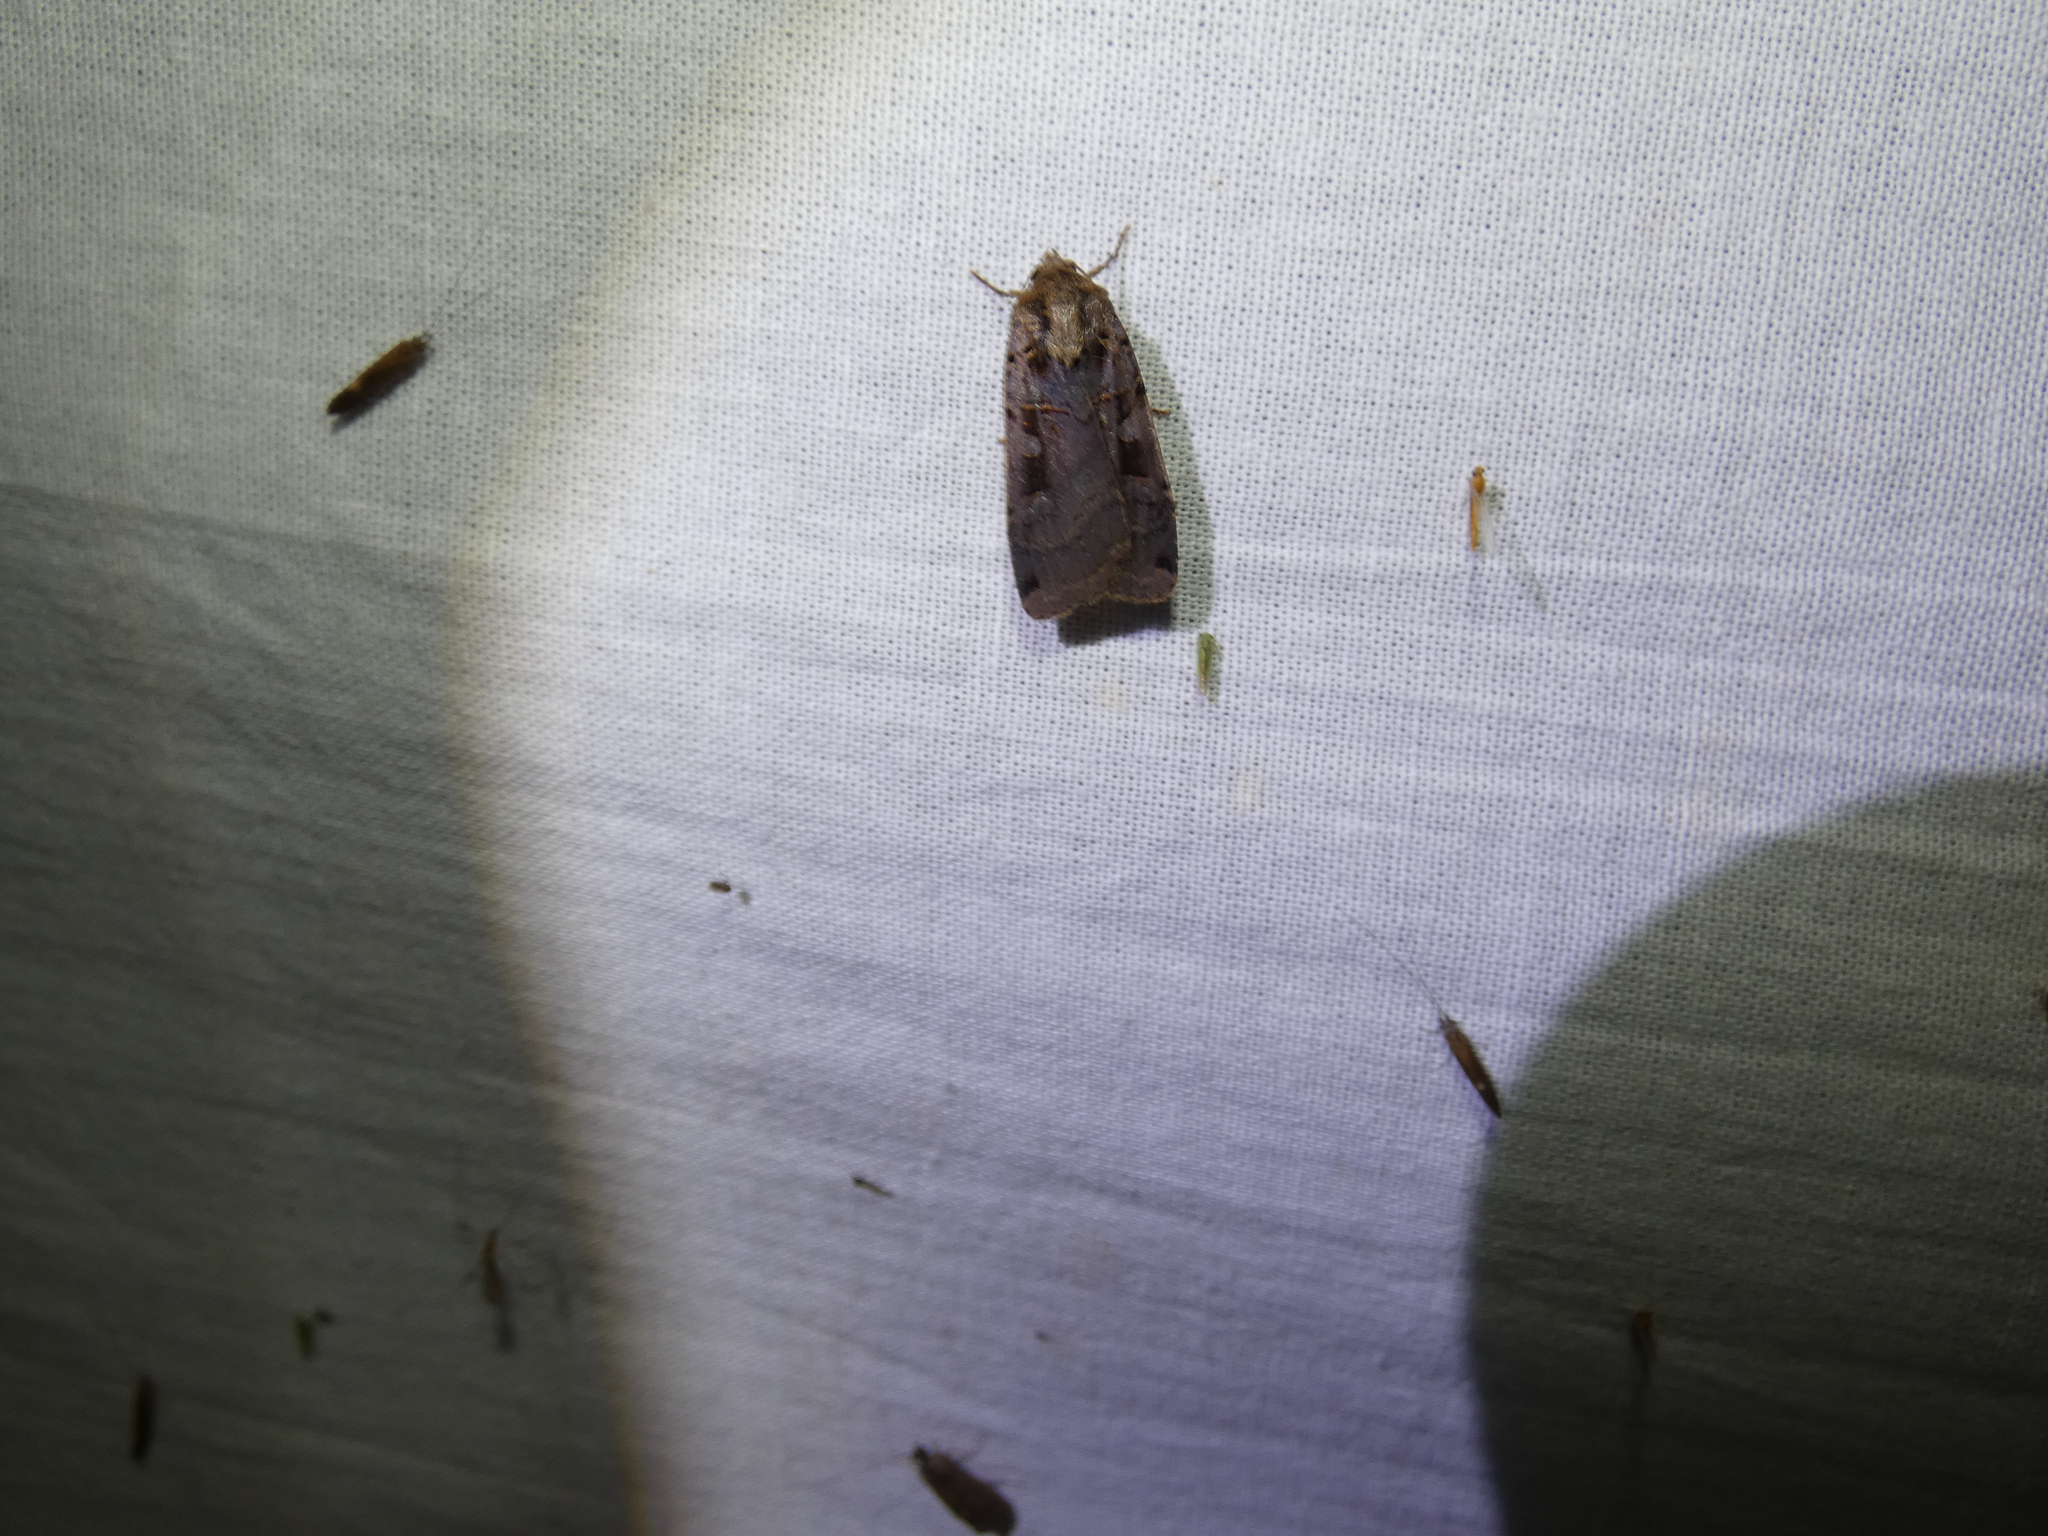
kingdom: Animalia
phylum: Arthropoda
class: Insecta
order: Lepidoptera
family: Noctuidae
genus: Xestia
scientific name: Xestia ditrapezium
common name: Triple-spotted clay
